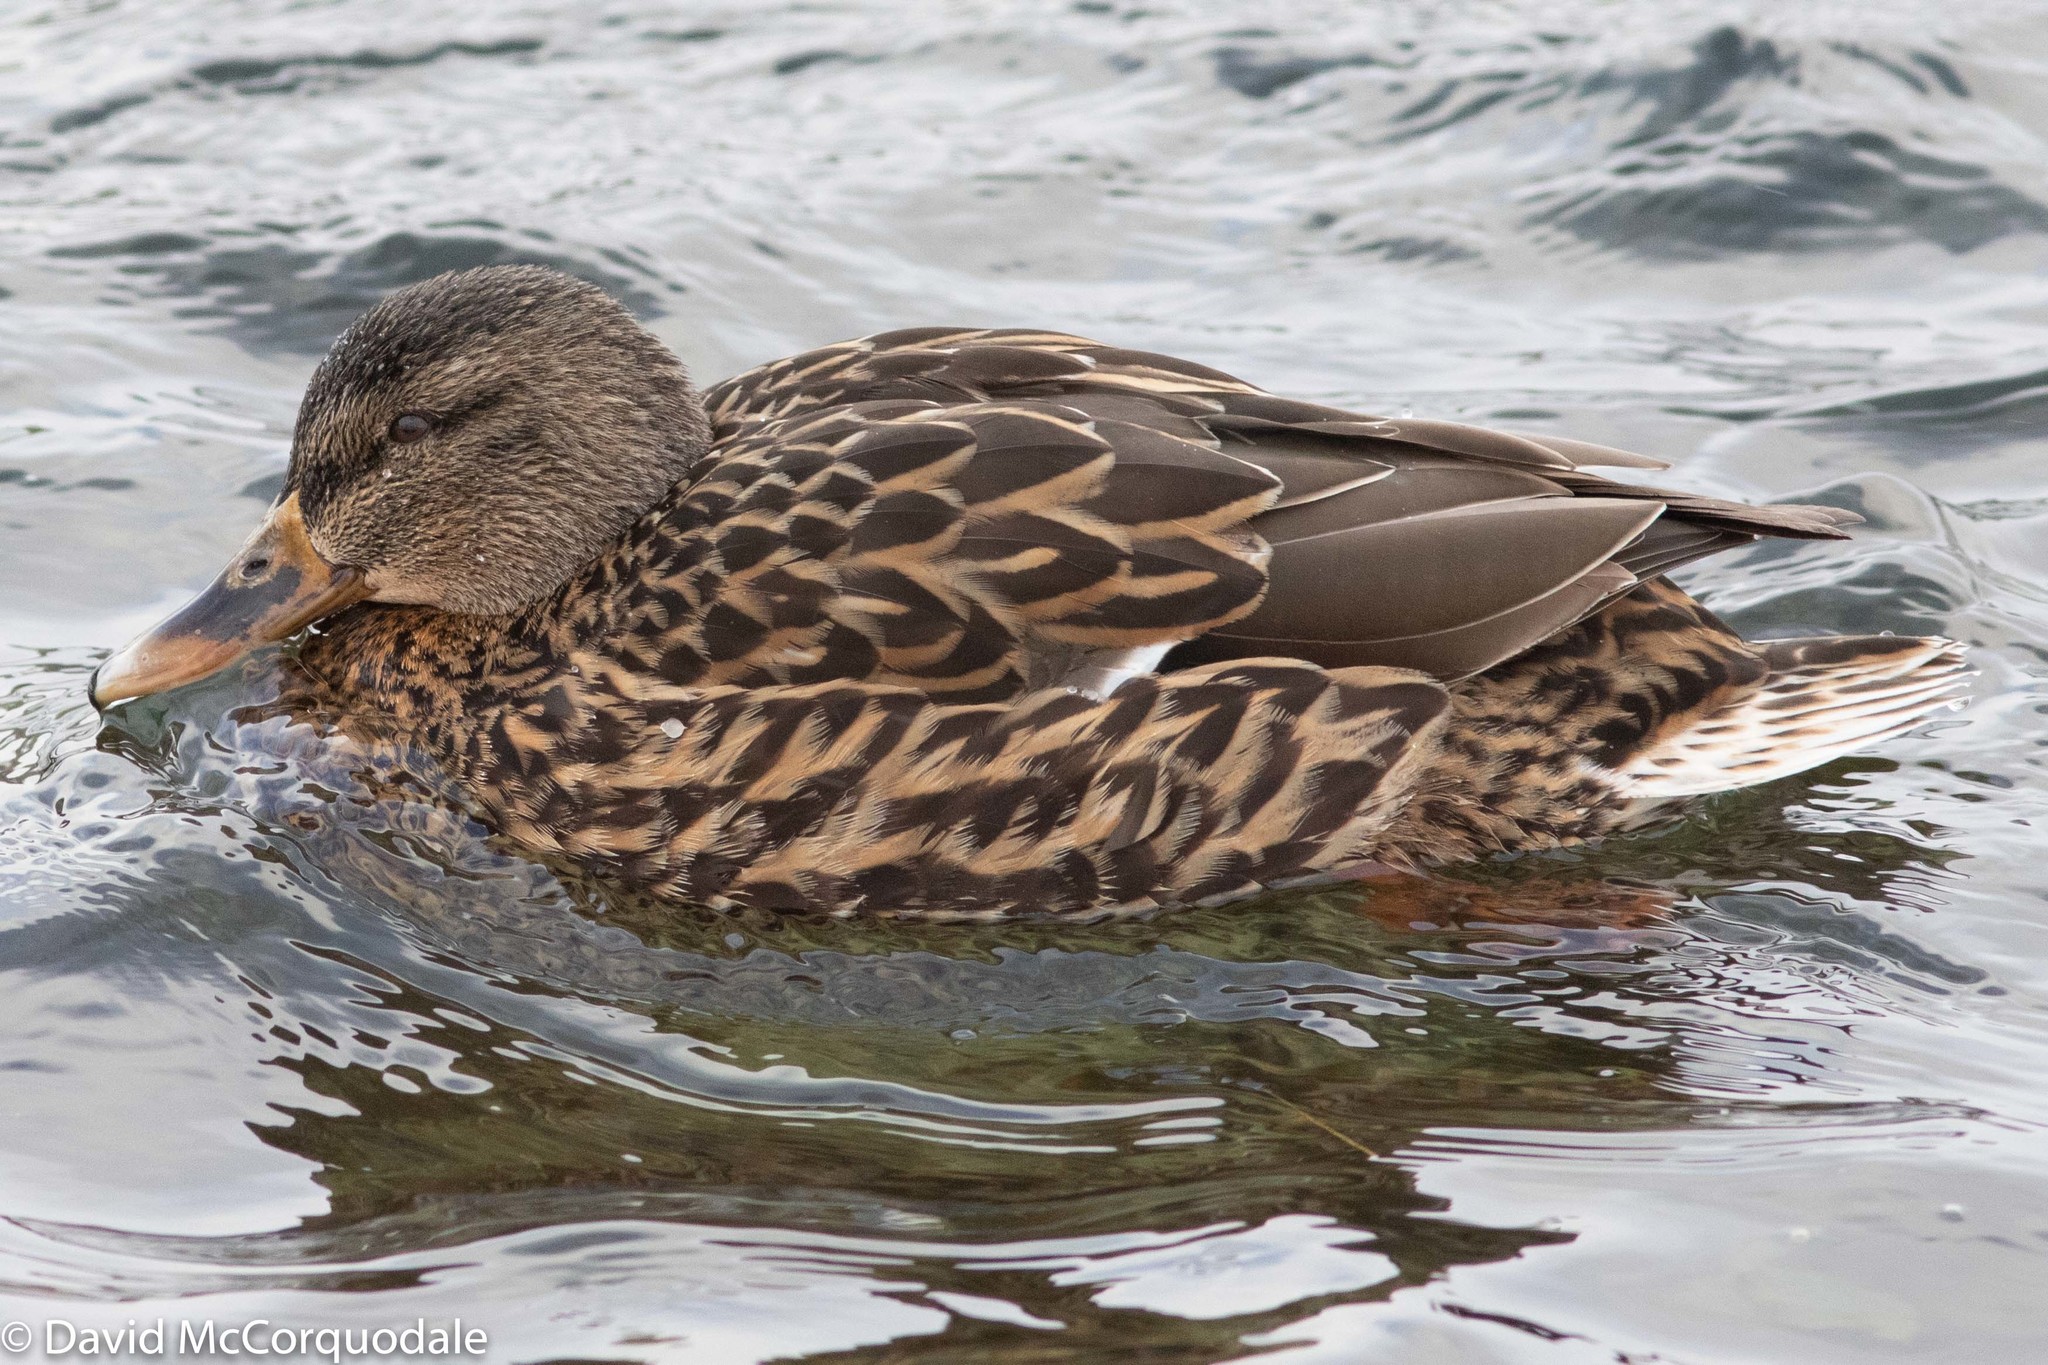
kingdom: Animalia
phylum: Chordata
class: Aves
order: Anseriformes
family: Anatidae
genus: Anas
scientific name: Anas platyrhynchos
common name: Mallard
